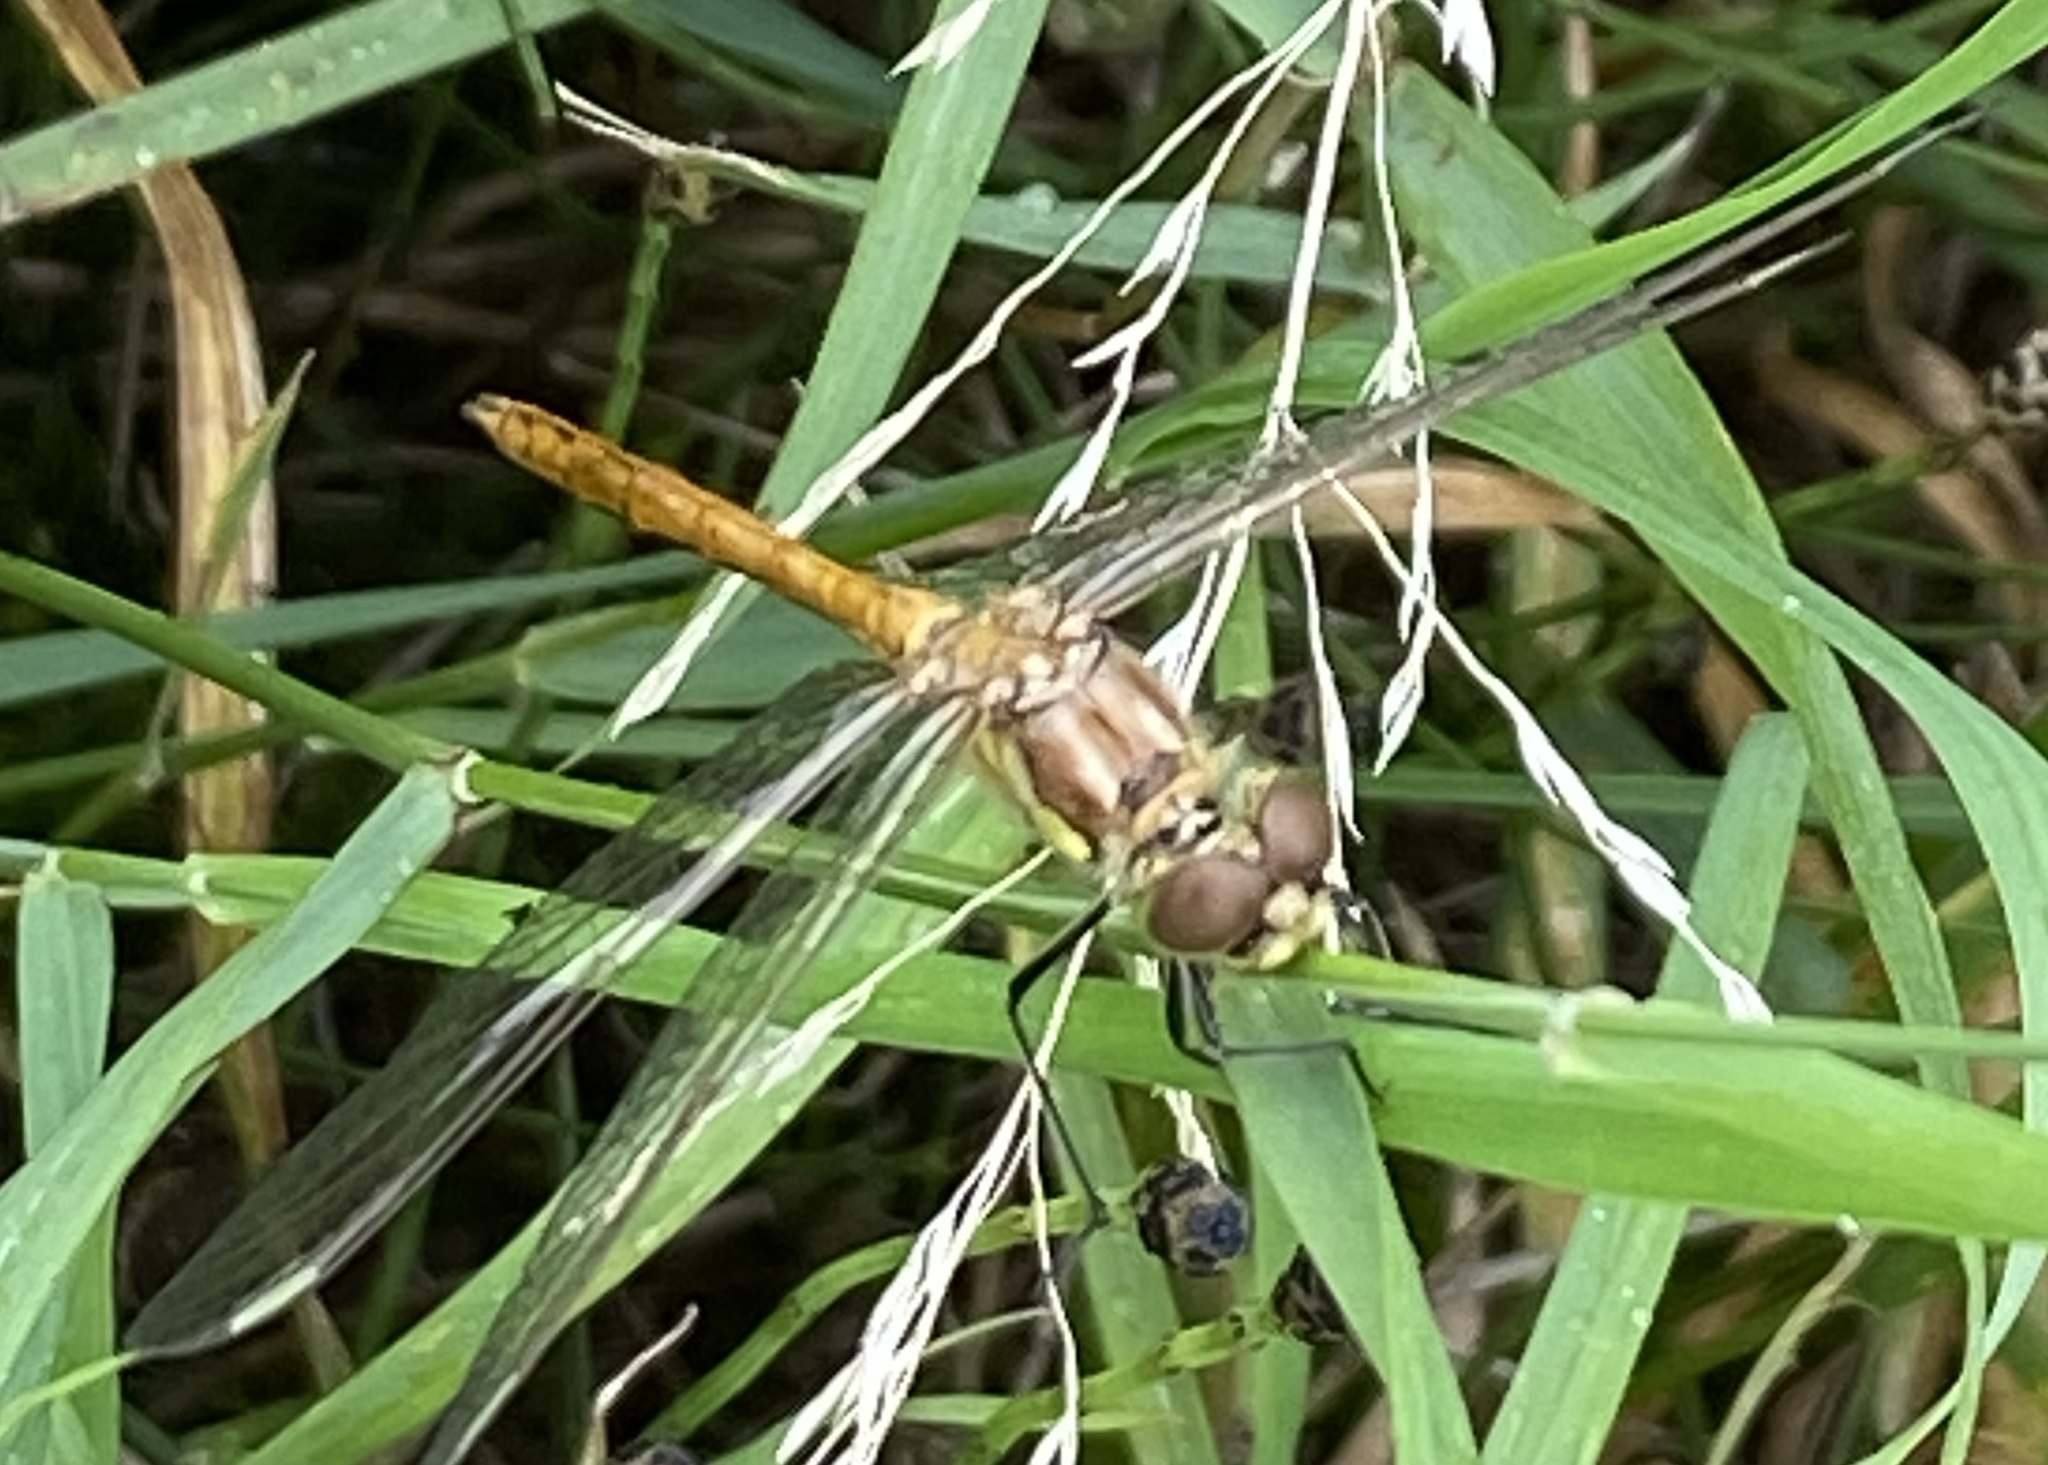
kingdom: Animalia
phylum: Arthropoda
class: Insecta
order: Odonata
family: Libellulidae
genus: Sympetrum
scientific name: Sympetrum vulgatum
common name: Vagrant darter
